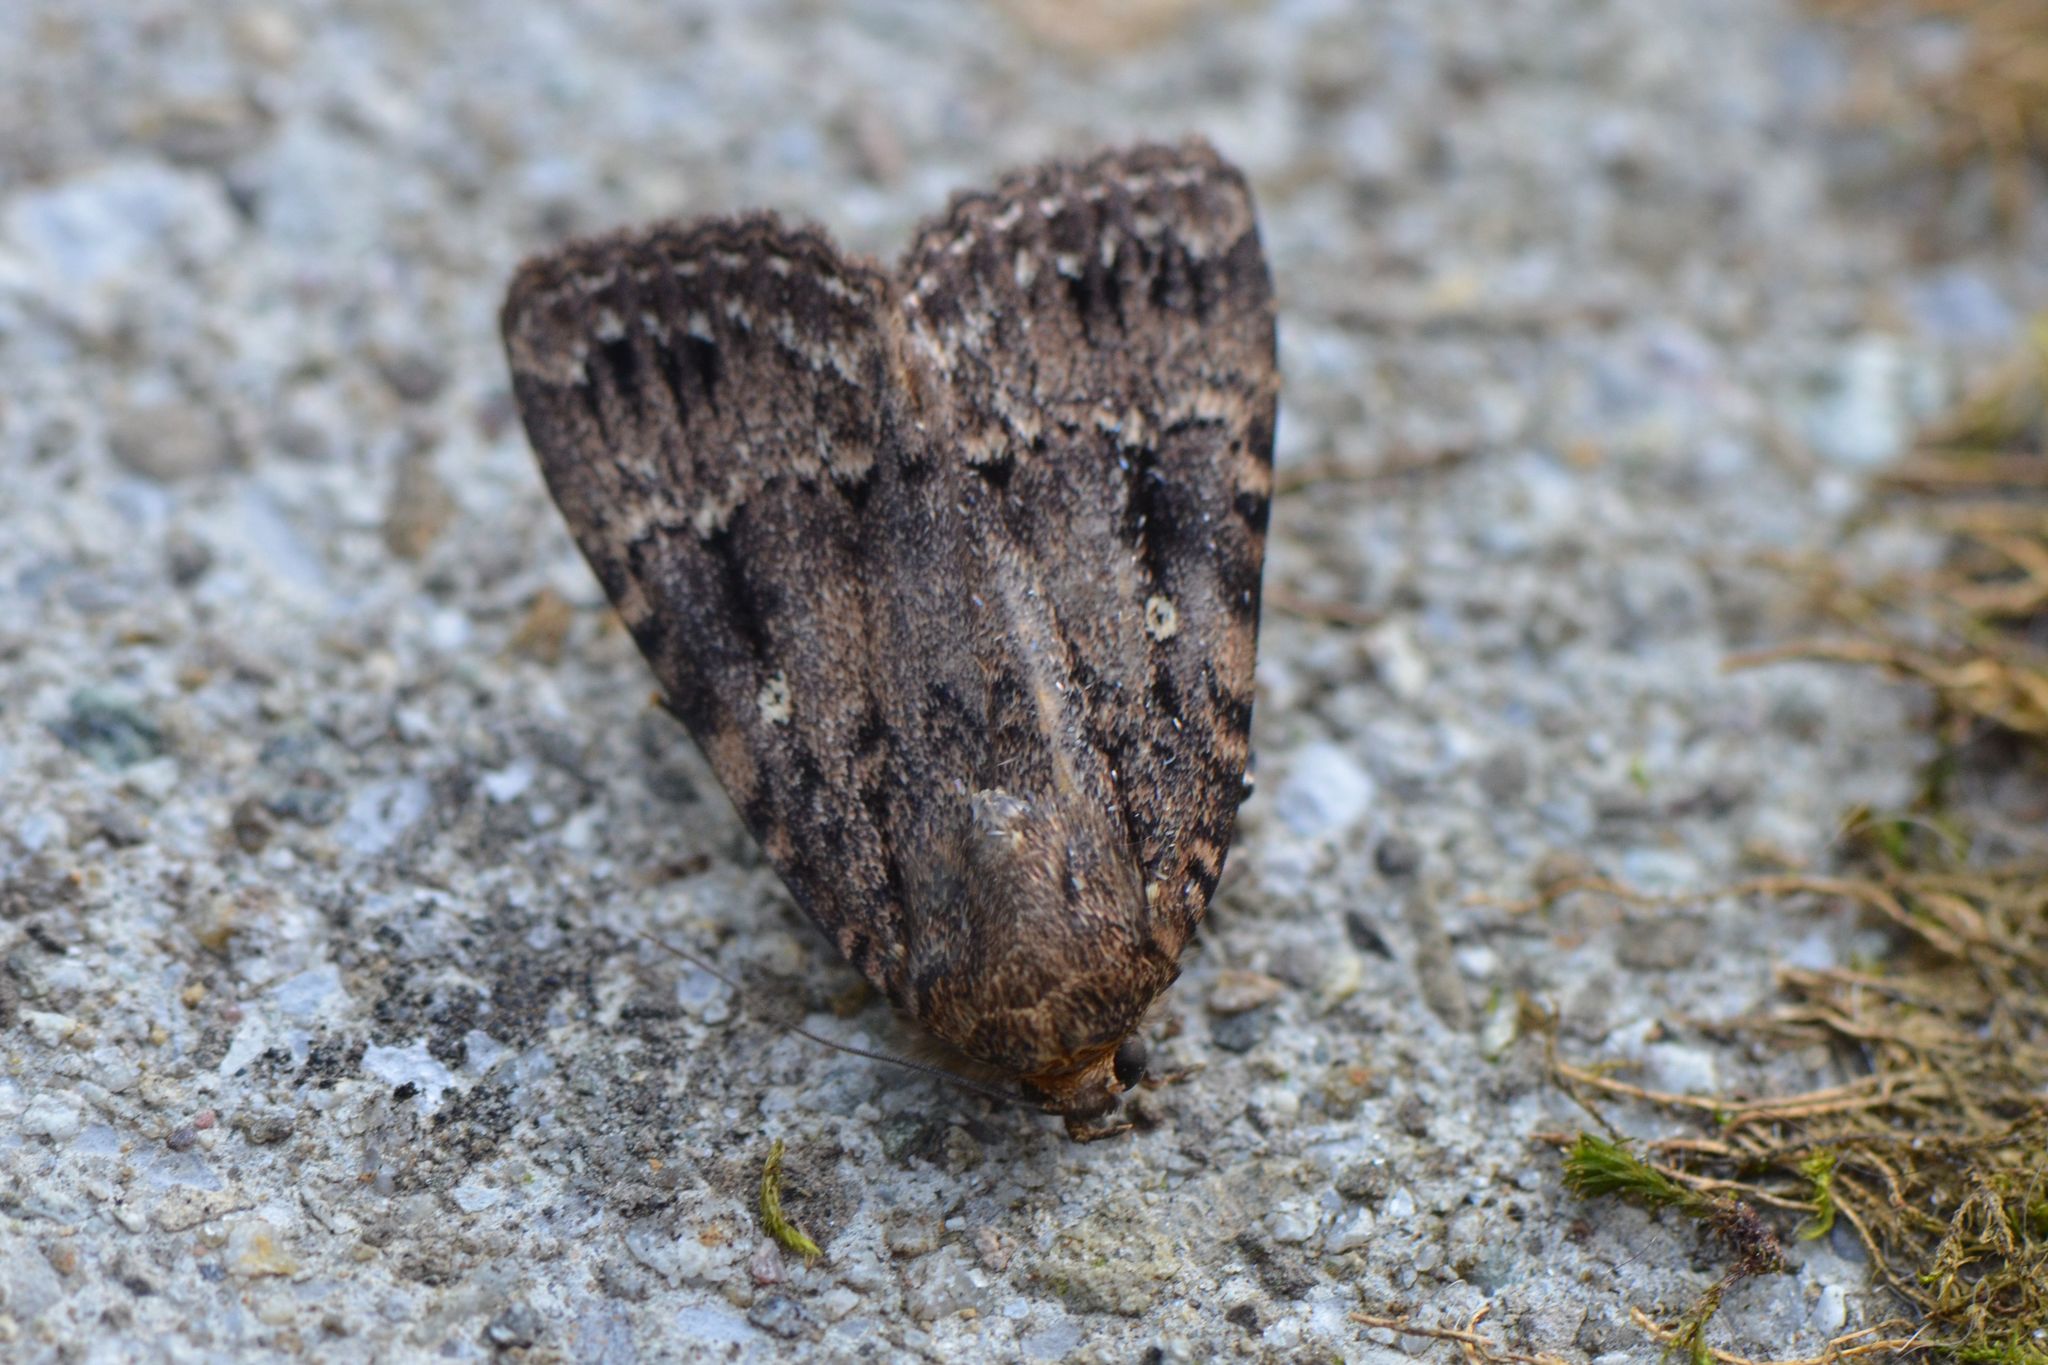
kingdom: Animalia
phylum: Arthropoda
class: Insecta
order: Lepidoptera
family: Noctuidae
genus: Amphipyra
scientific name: Amphipyra pyramidea
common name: Copper underwing
